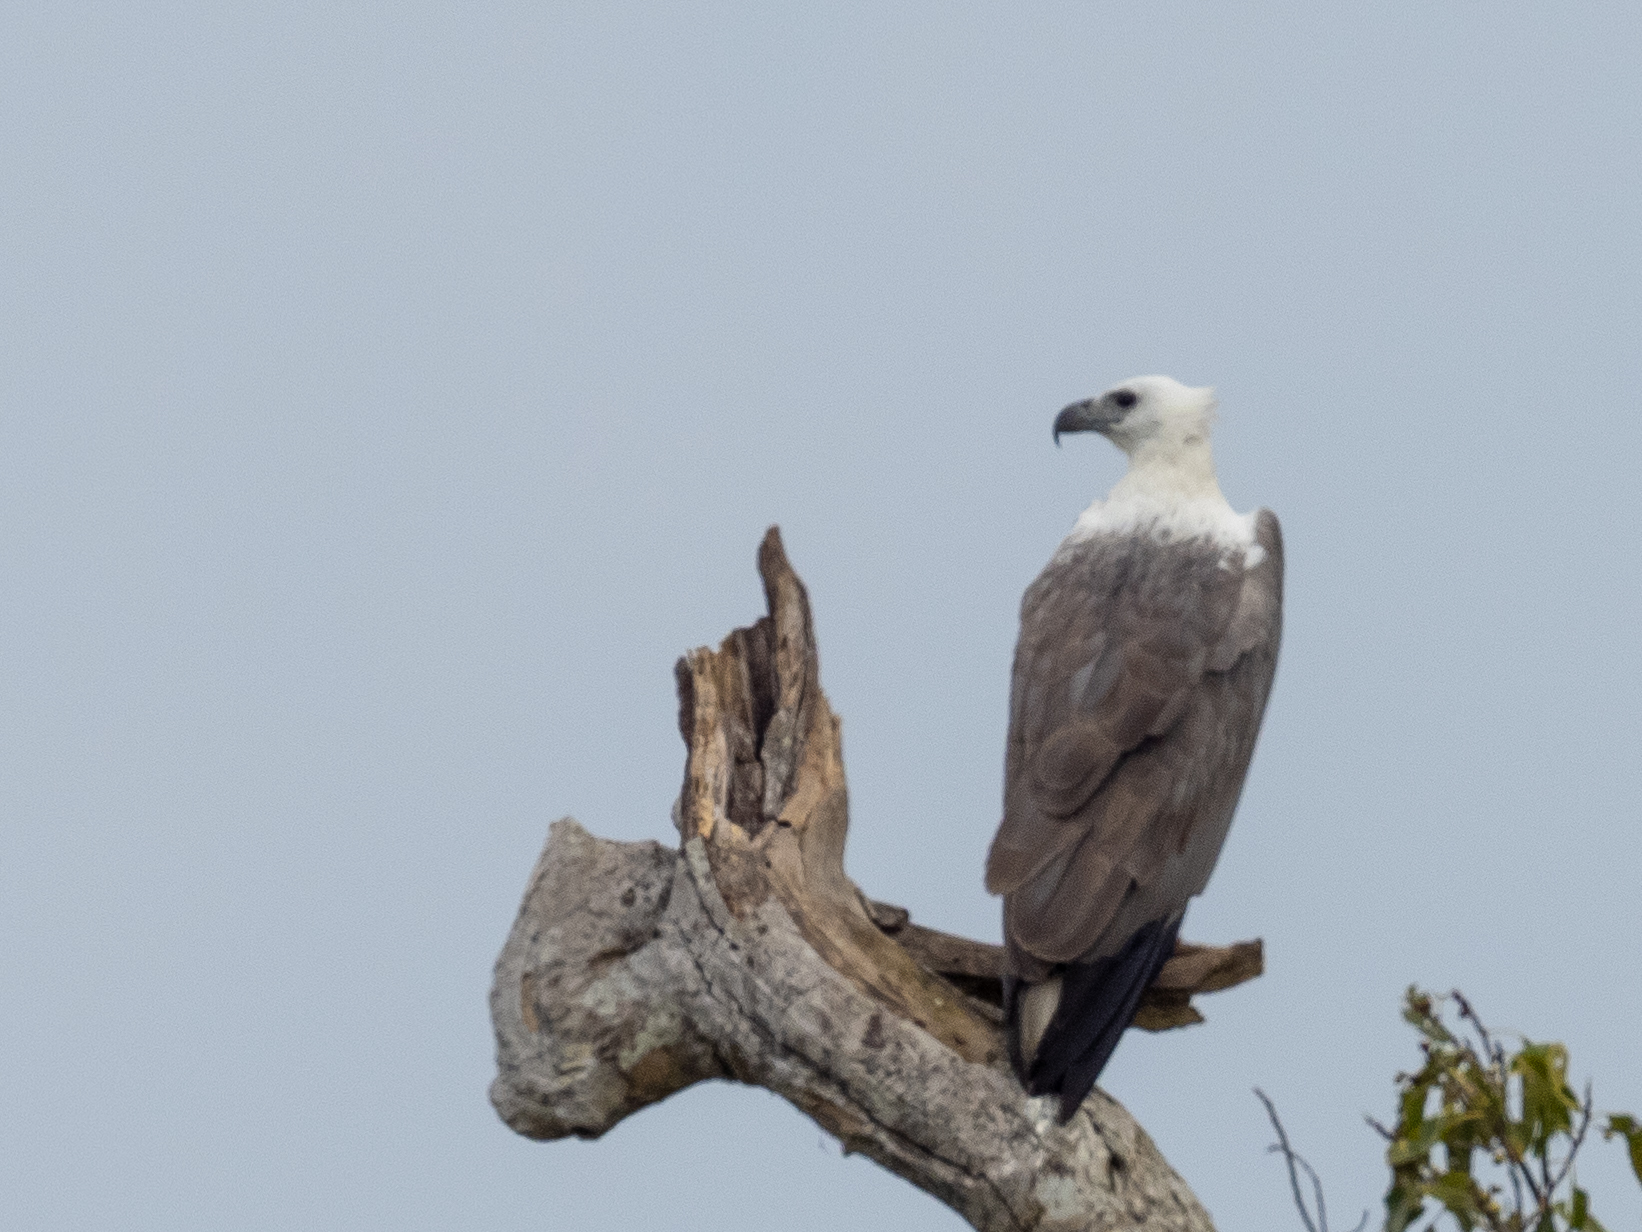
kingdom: Animalia
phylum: Chordata
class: Aves
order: Accipitriformes
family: Accipitridae
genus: Haliaeetus
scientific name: Haliaeetus leucogaster
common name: White-bellied sea eagle
